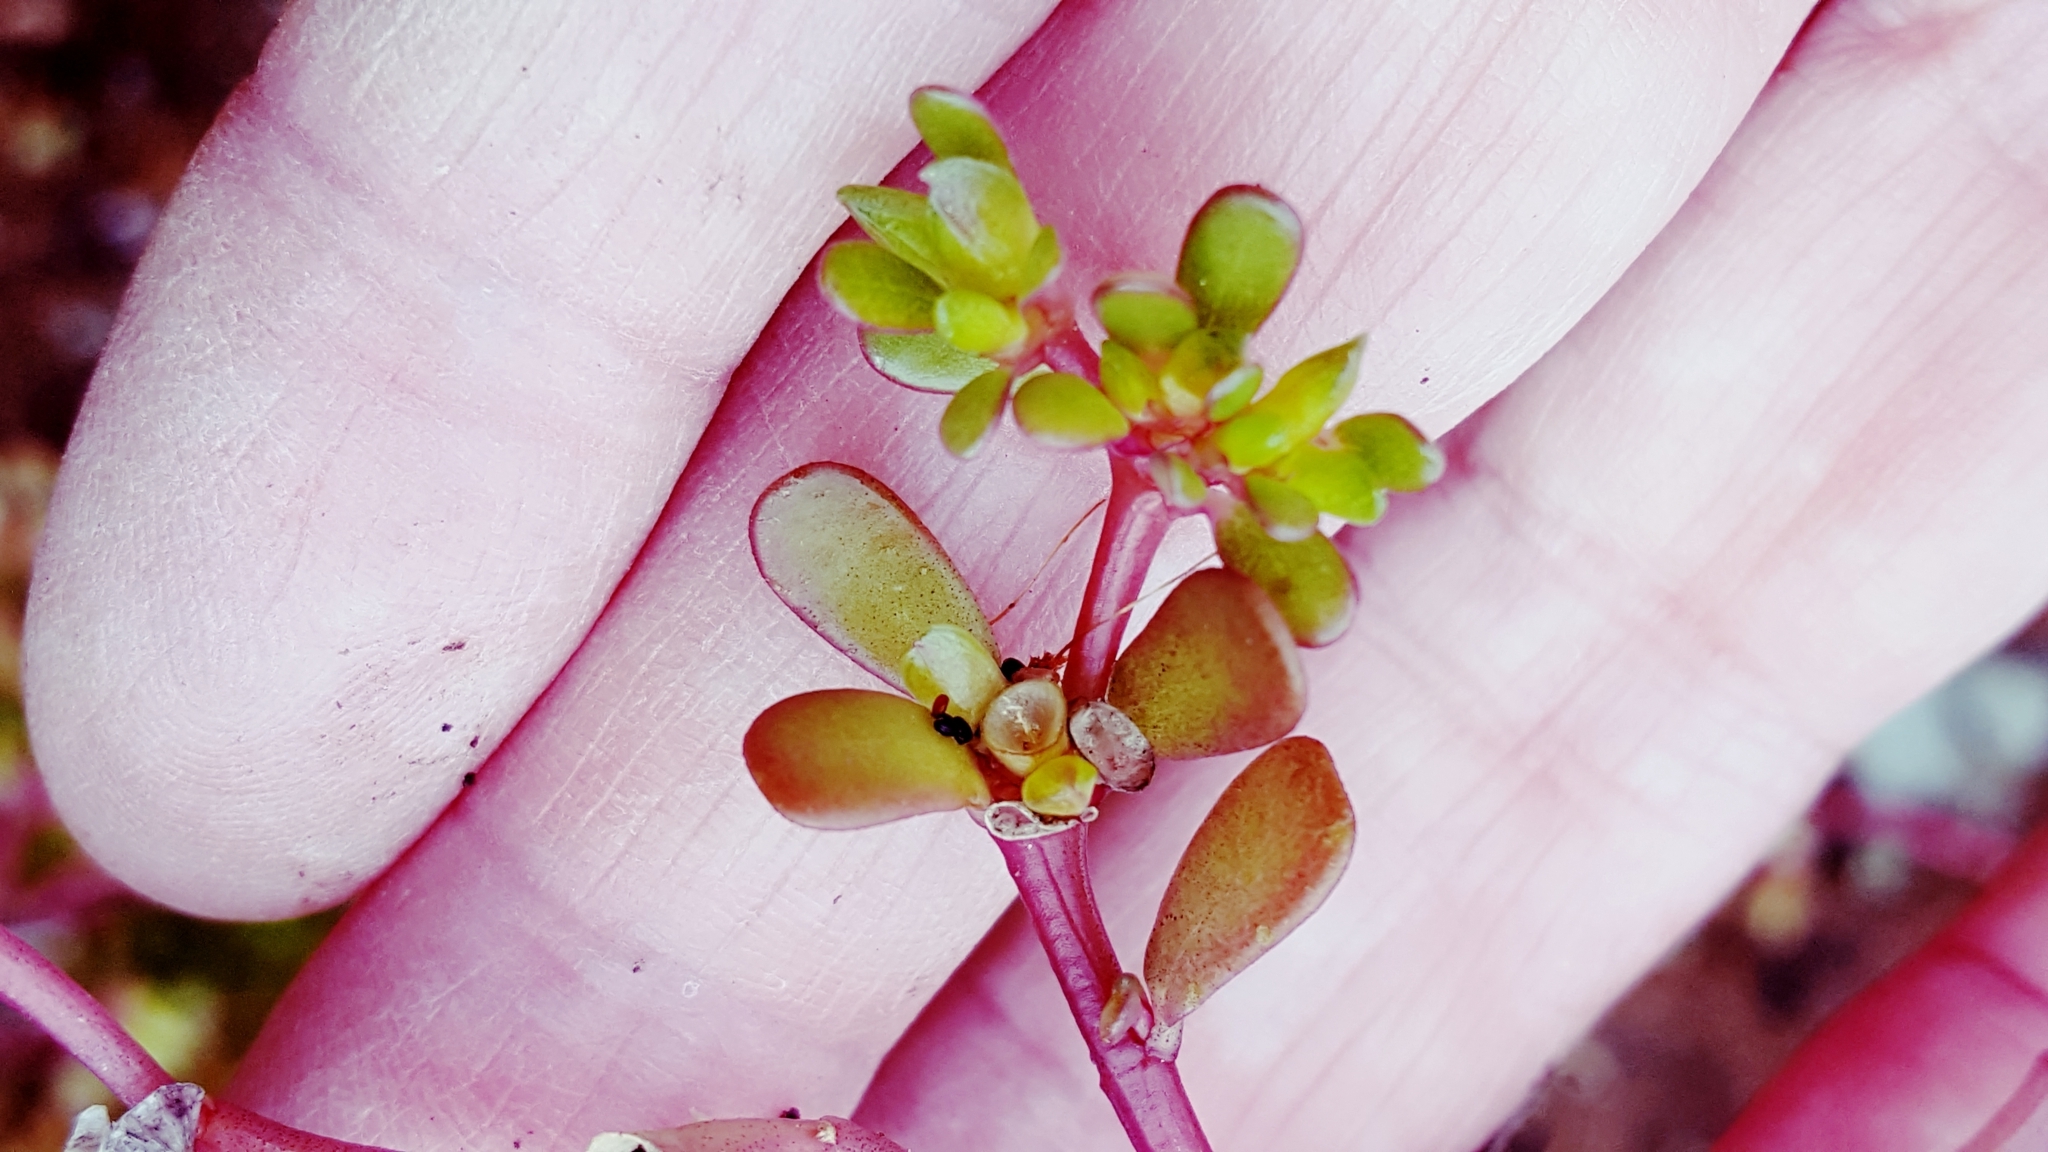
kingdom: Plantae
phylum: Tracheophyta
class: Magnoliopsida
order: Caryophyllales
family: Portulacaceae
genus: Portulaca
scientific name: Portulaca oleracea
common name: Common purslane
